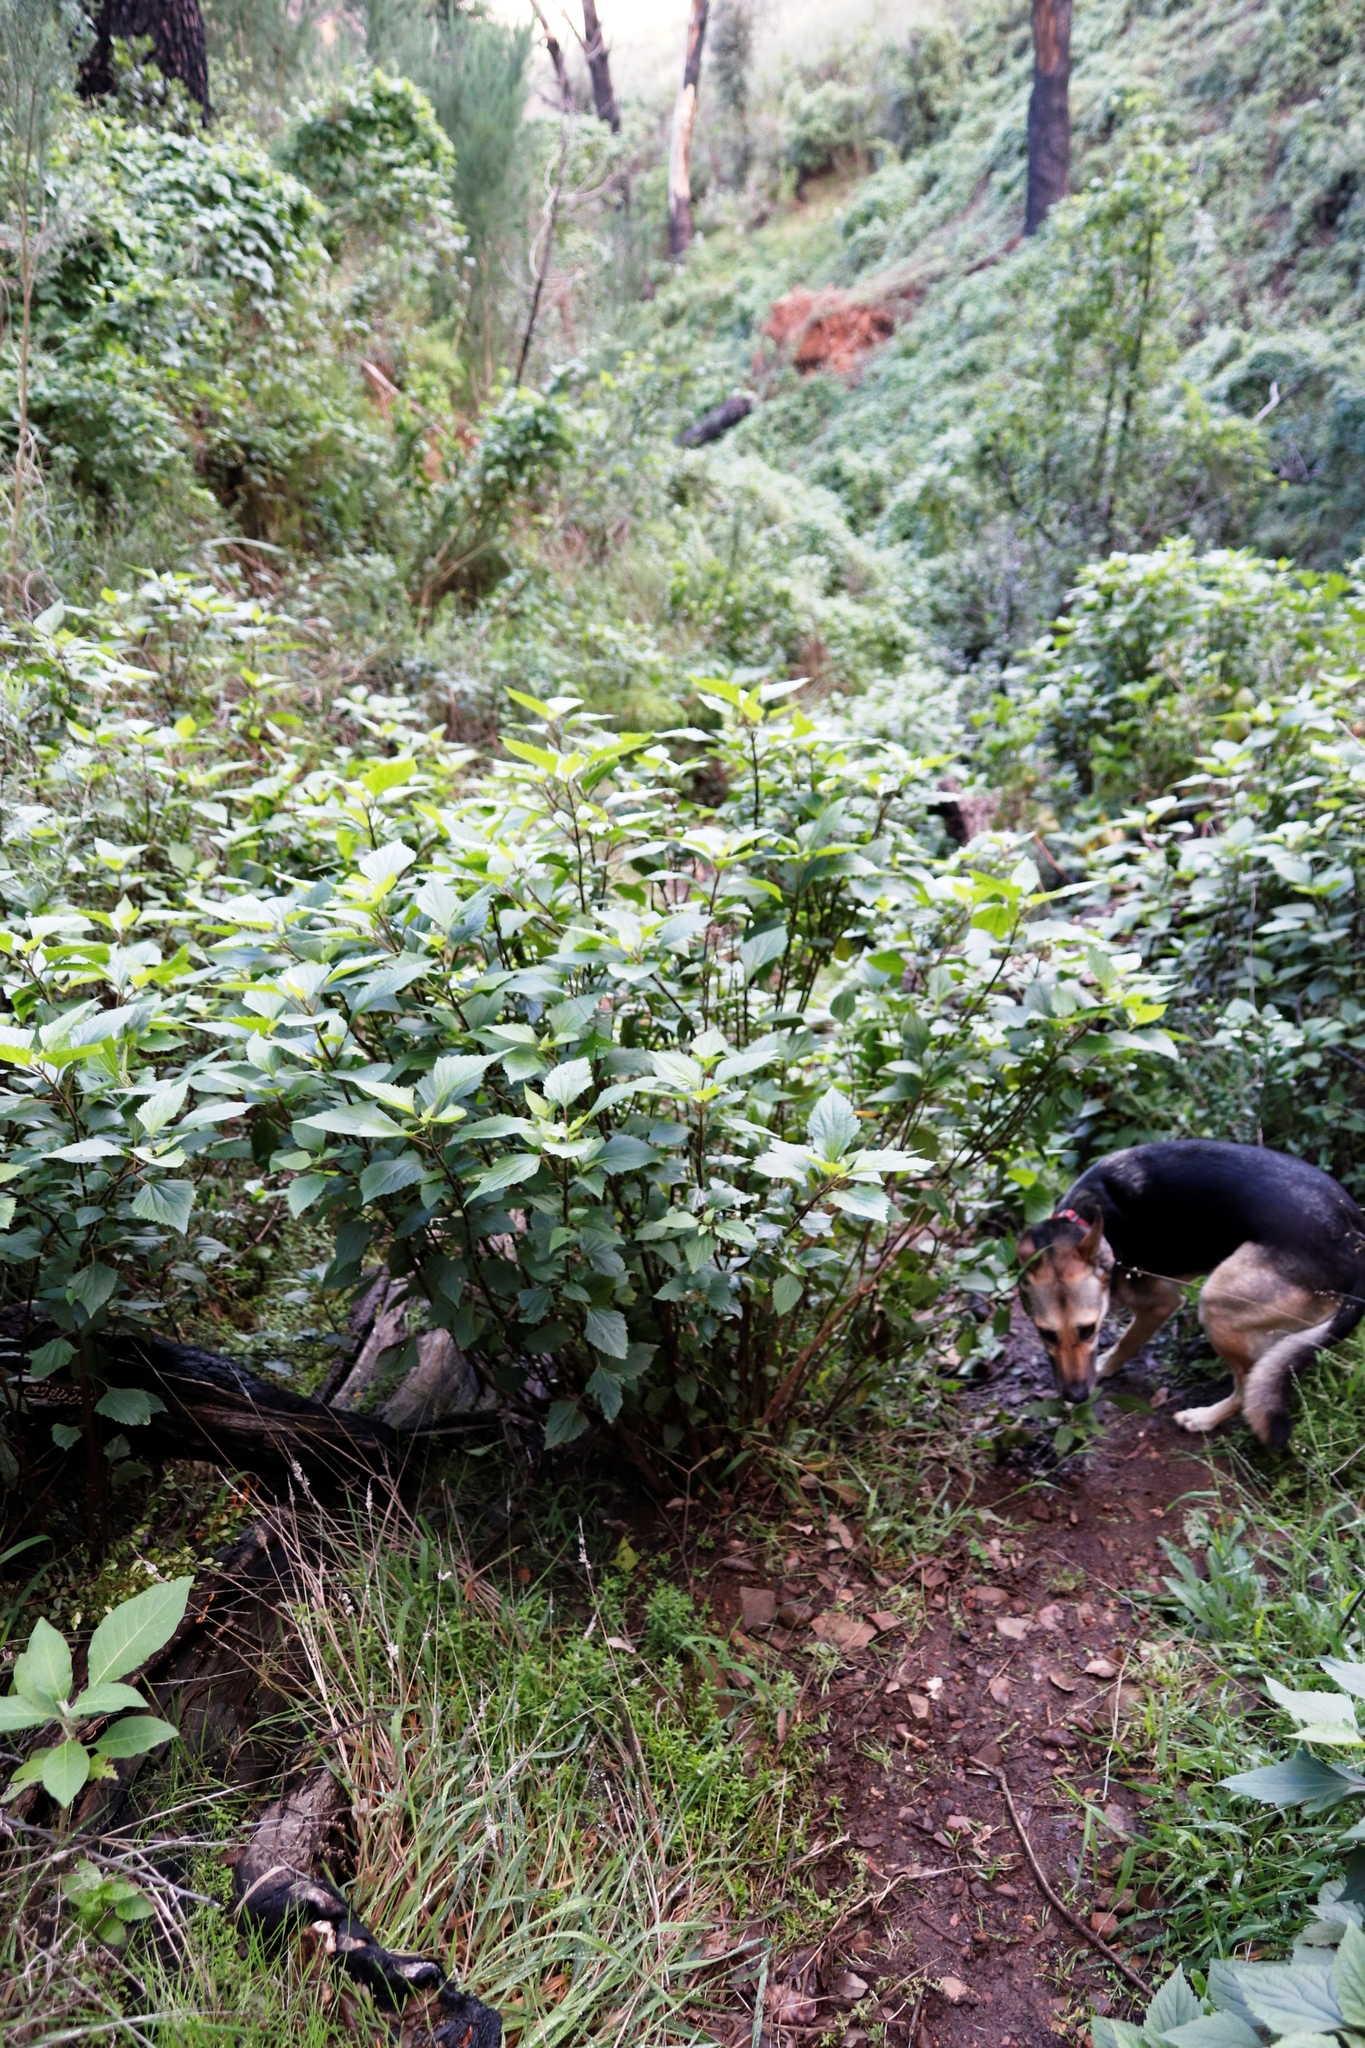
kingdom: Plantae
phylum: Tracheophyta
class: Magnoliopsida
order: Asterales
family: Asteraceae
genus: Ageratina
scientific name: Ageratina adenophora
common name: Sticky snakeroot
